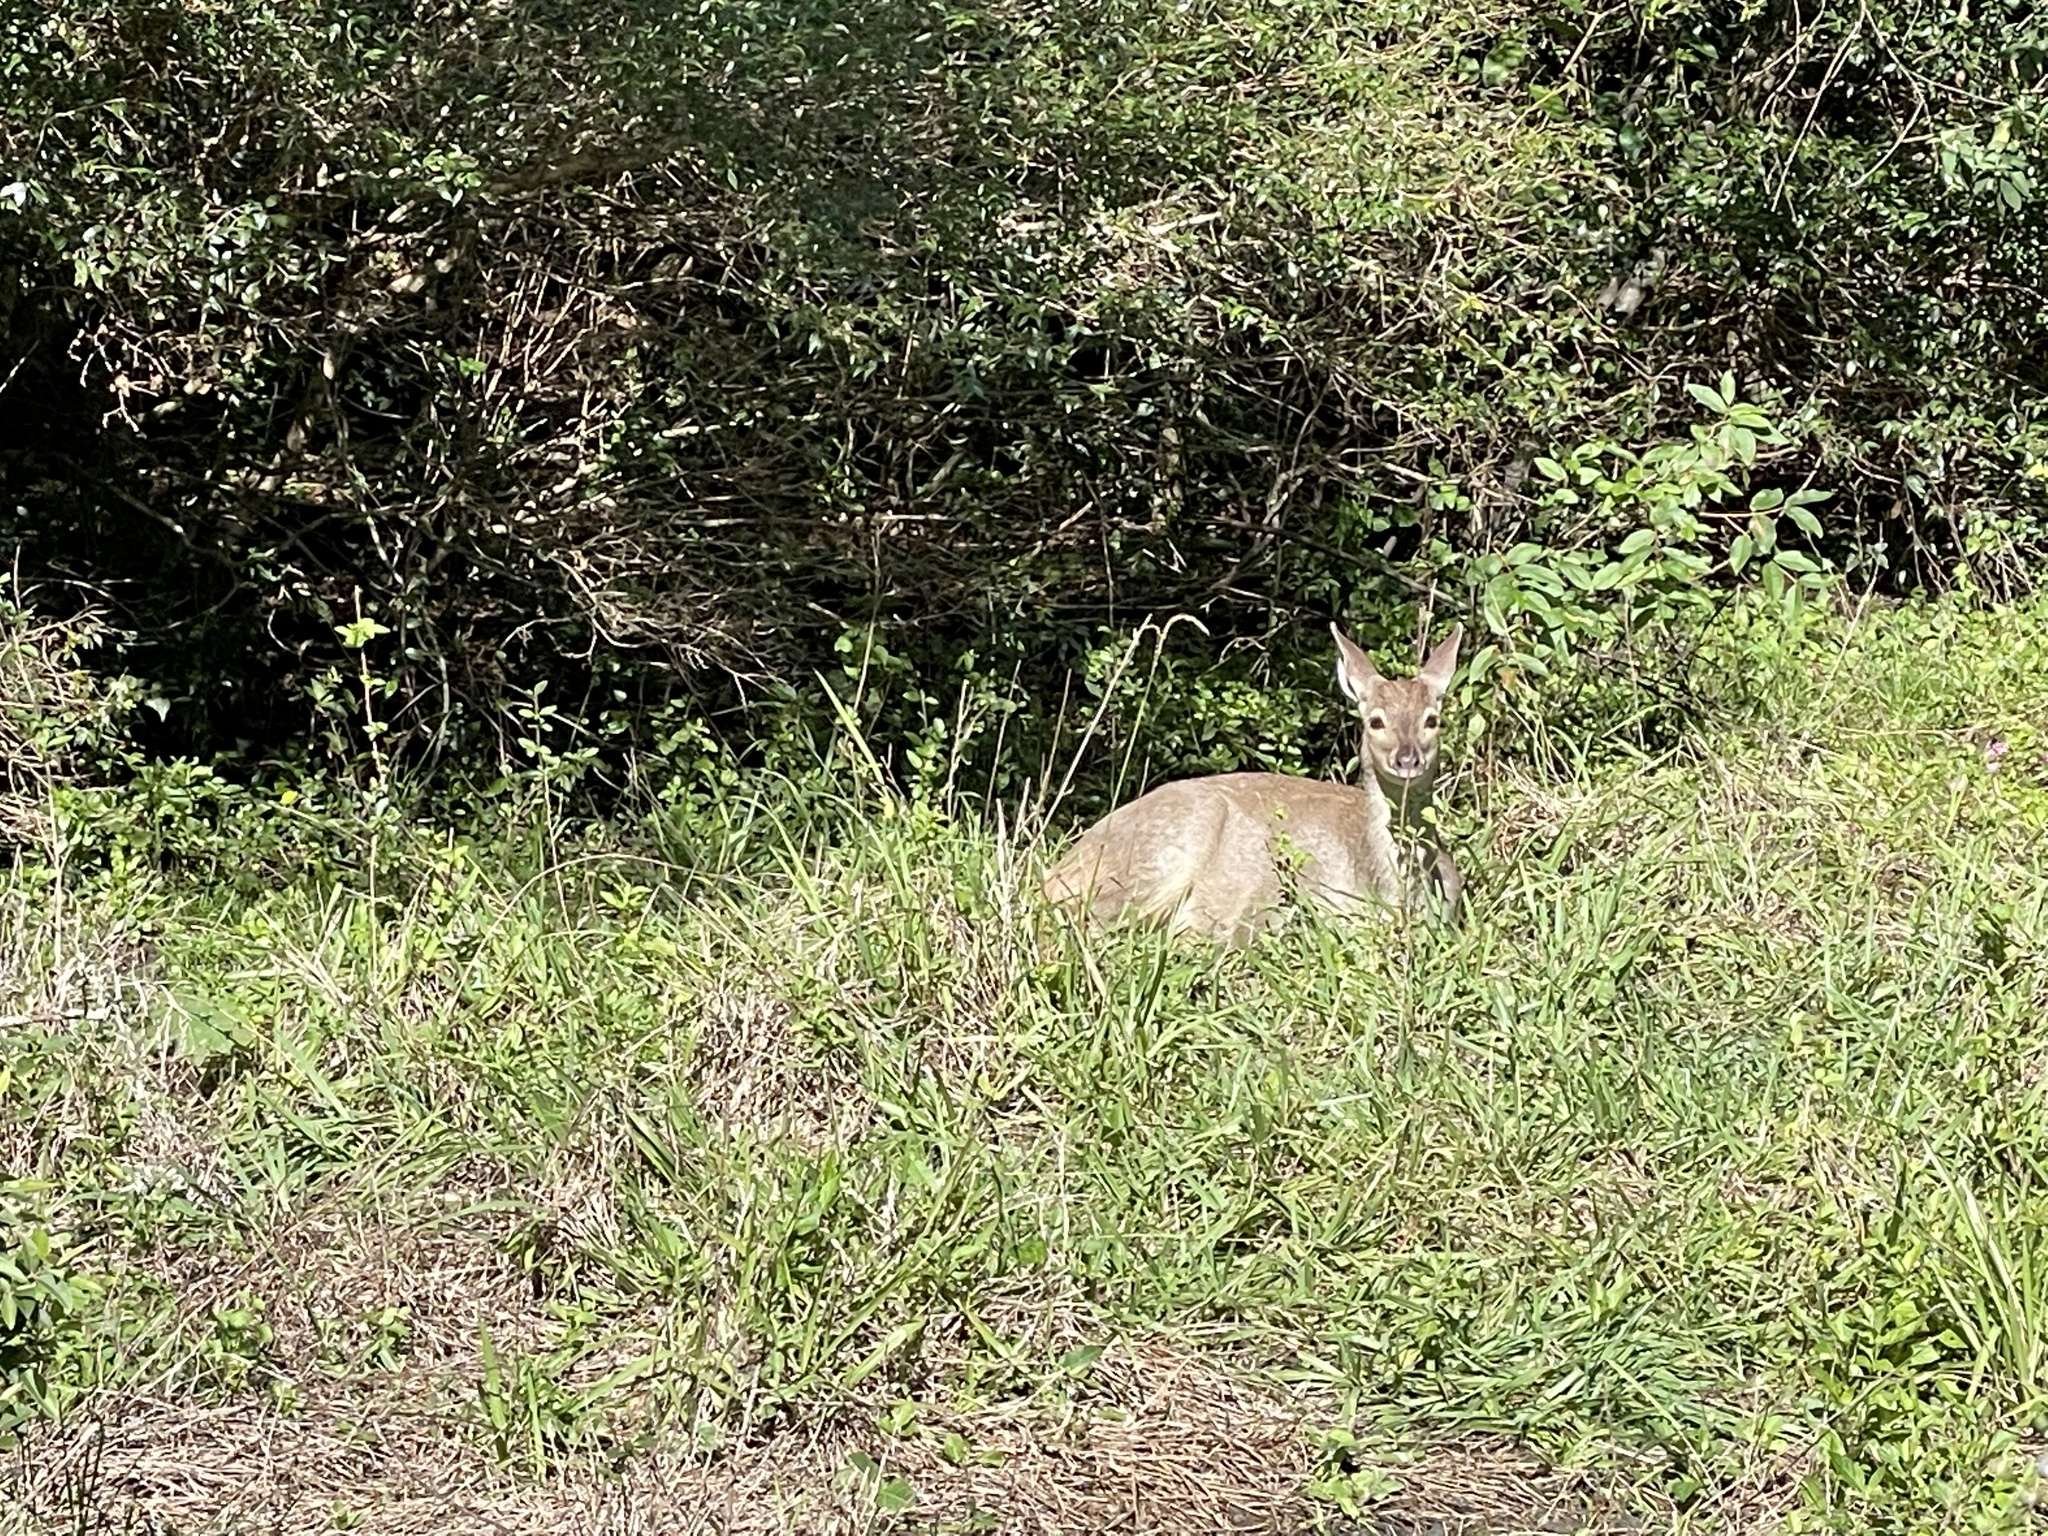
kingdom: Animalia
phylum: Chordata
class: Mammalia
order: Artiodactyla
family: Cervidae
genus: Mazama
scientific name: Mazama gouazoubira
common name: Gray brocket
